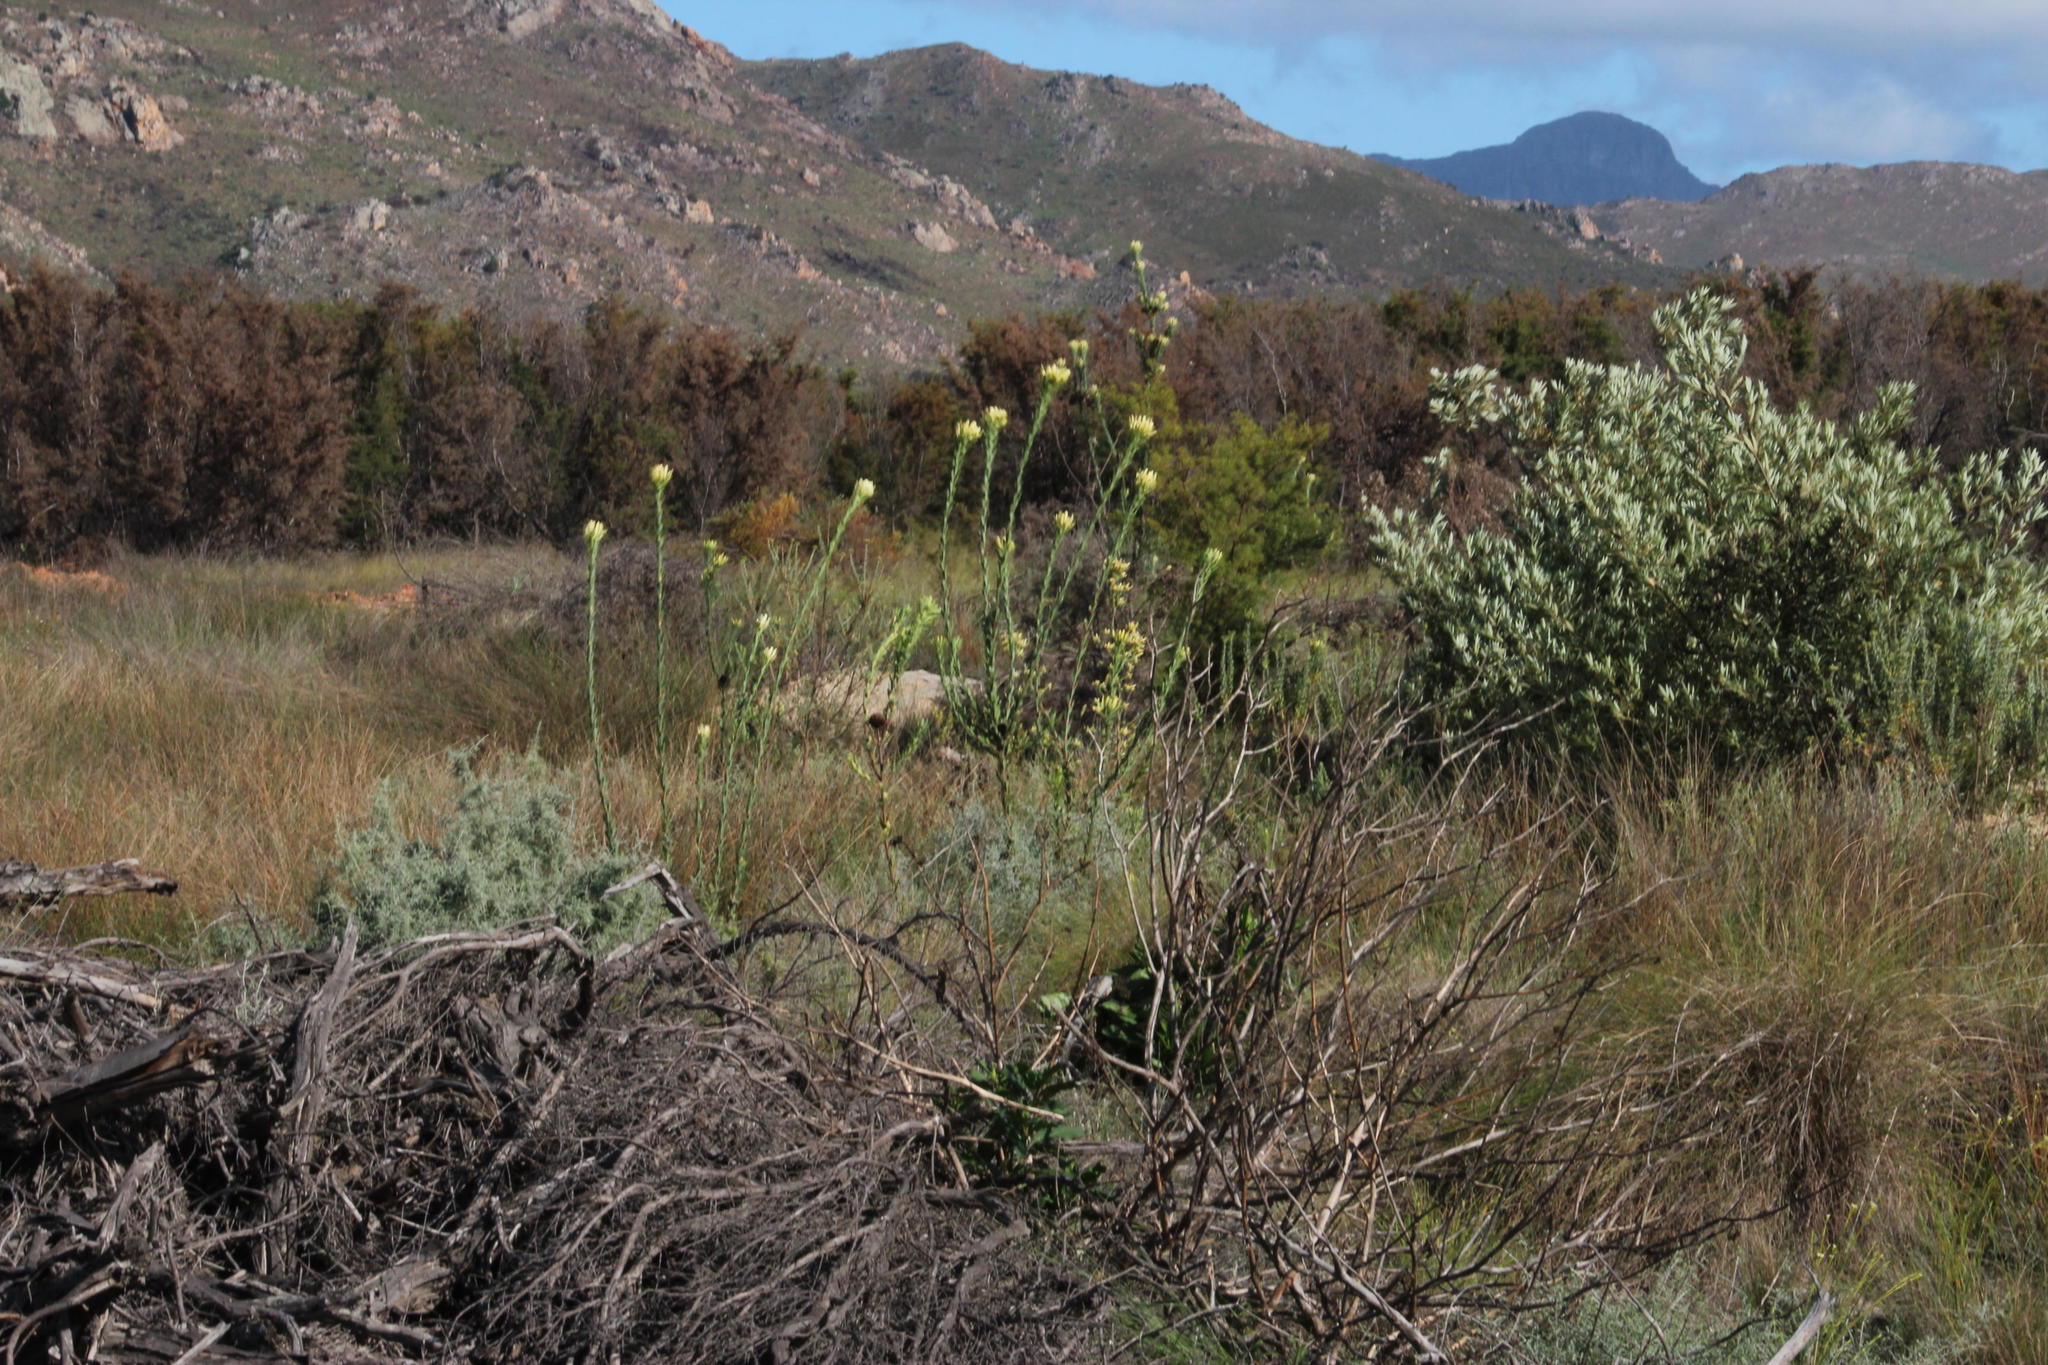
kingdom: Plantae
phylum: Tracheophyta
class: Magnoliopsida
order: Proteales
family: Proteaceae
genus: Leucadendron
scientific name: Leucadendron chamelaea
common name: Witsenberg conebush
